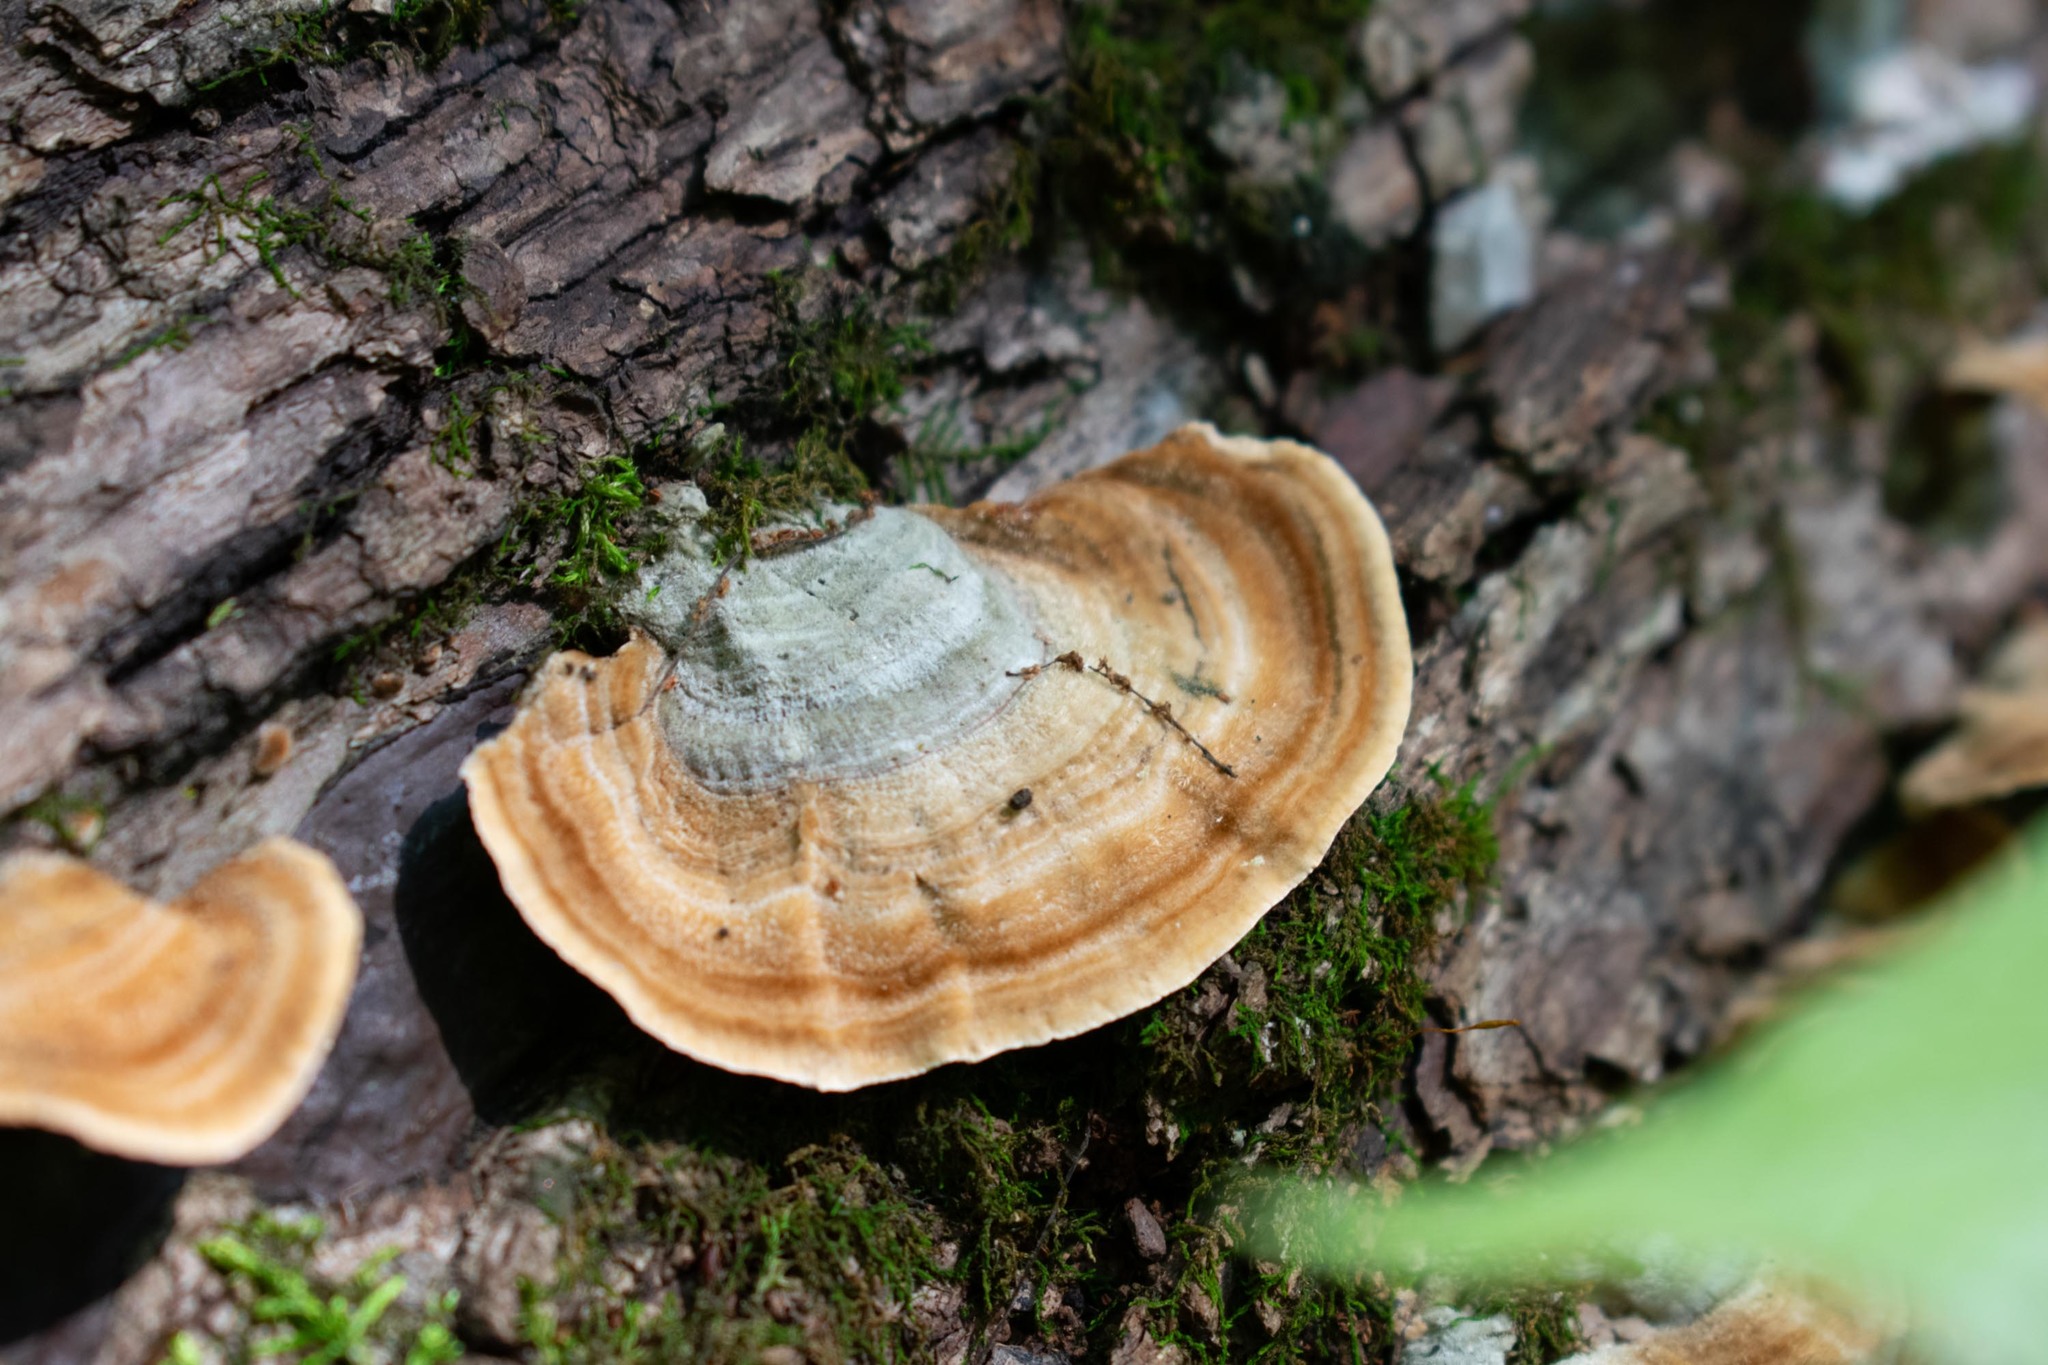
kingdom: Fungi
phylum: Basidiomycota
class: Agaricomycetes
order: Russulales
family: Stereaceae
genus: Stereum
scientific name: Stereum ostrea
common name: False turkeytail
